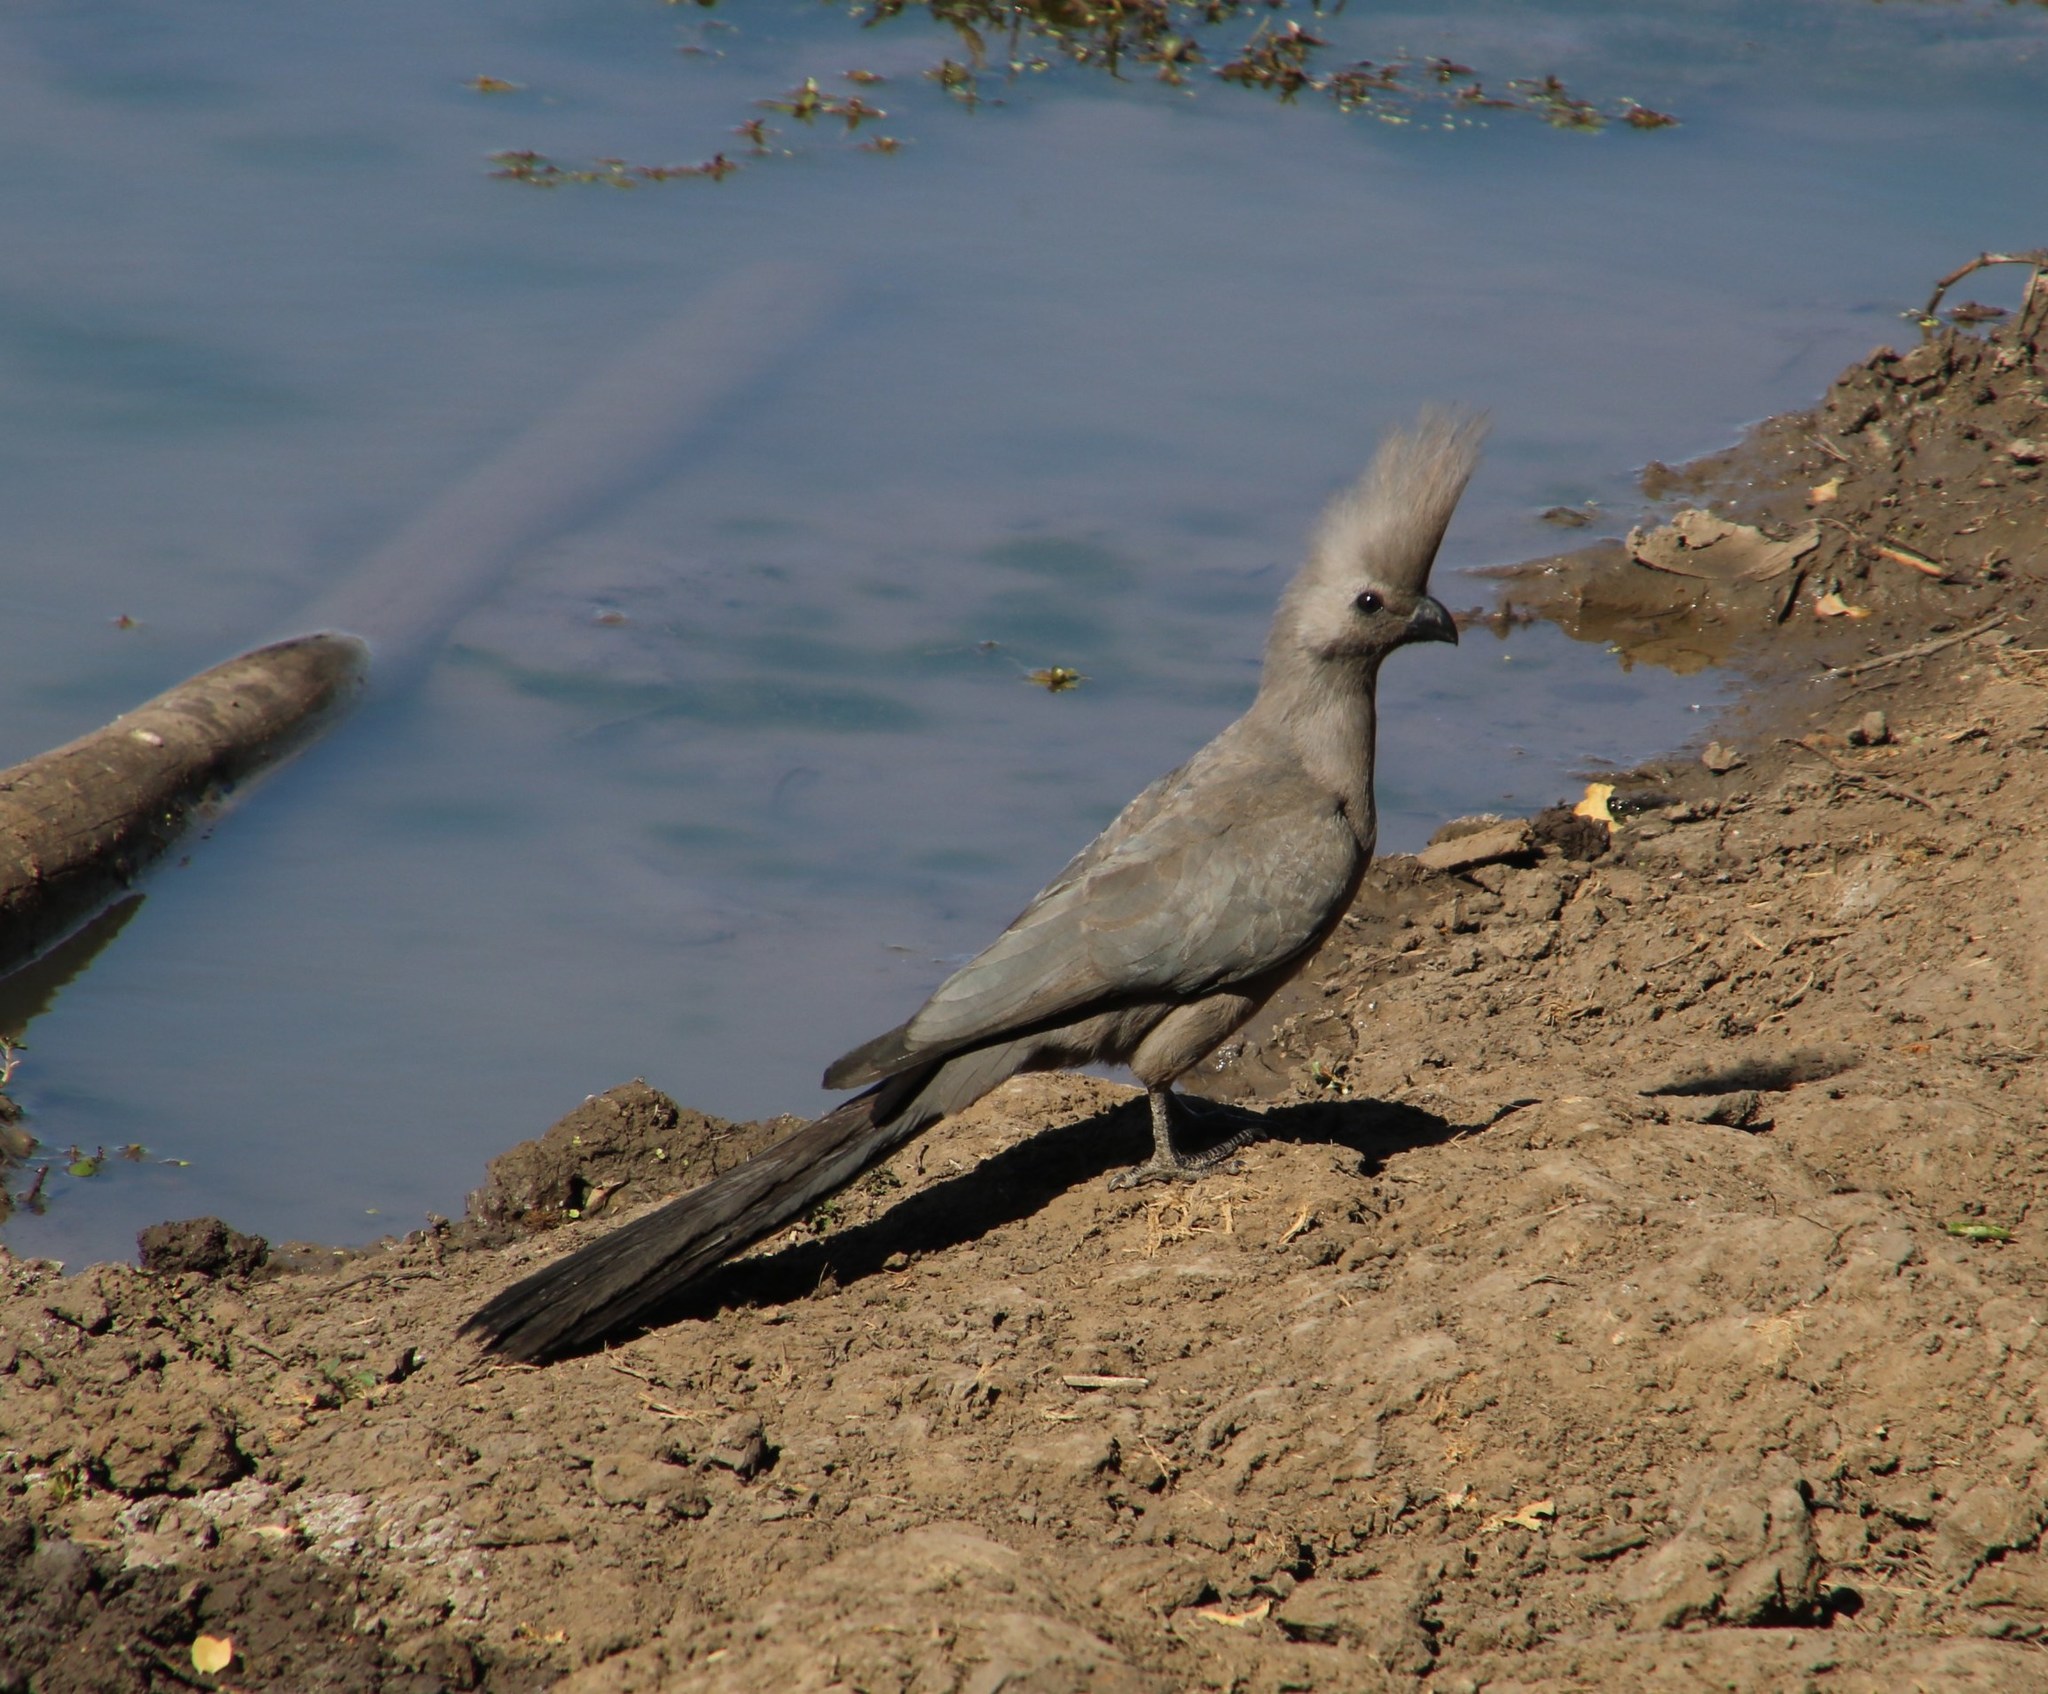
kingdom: Animalia
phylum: Chordata
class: Aves
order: Musophagiformes
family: Musophagidae
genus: Corythaixoides
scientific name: Corythaixoides concolor
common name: Grey go-away-bird
